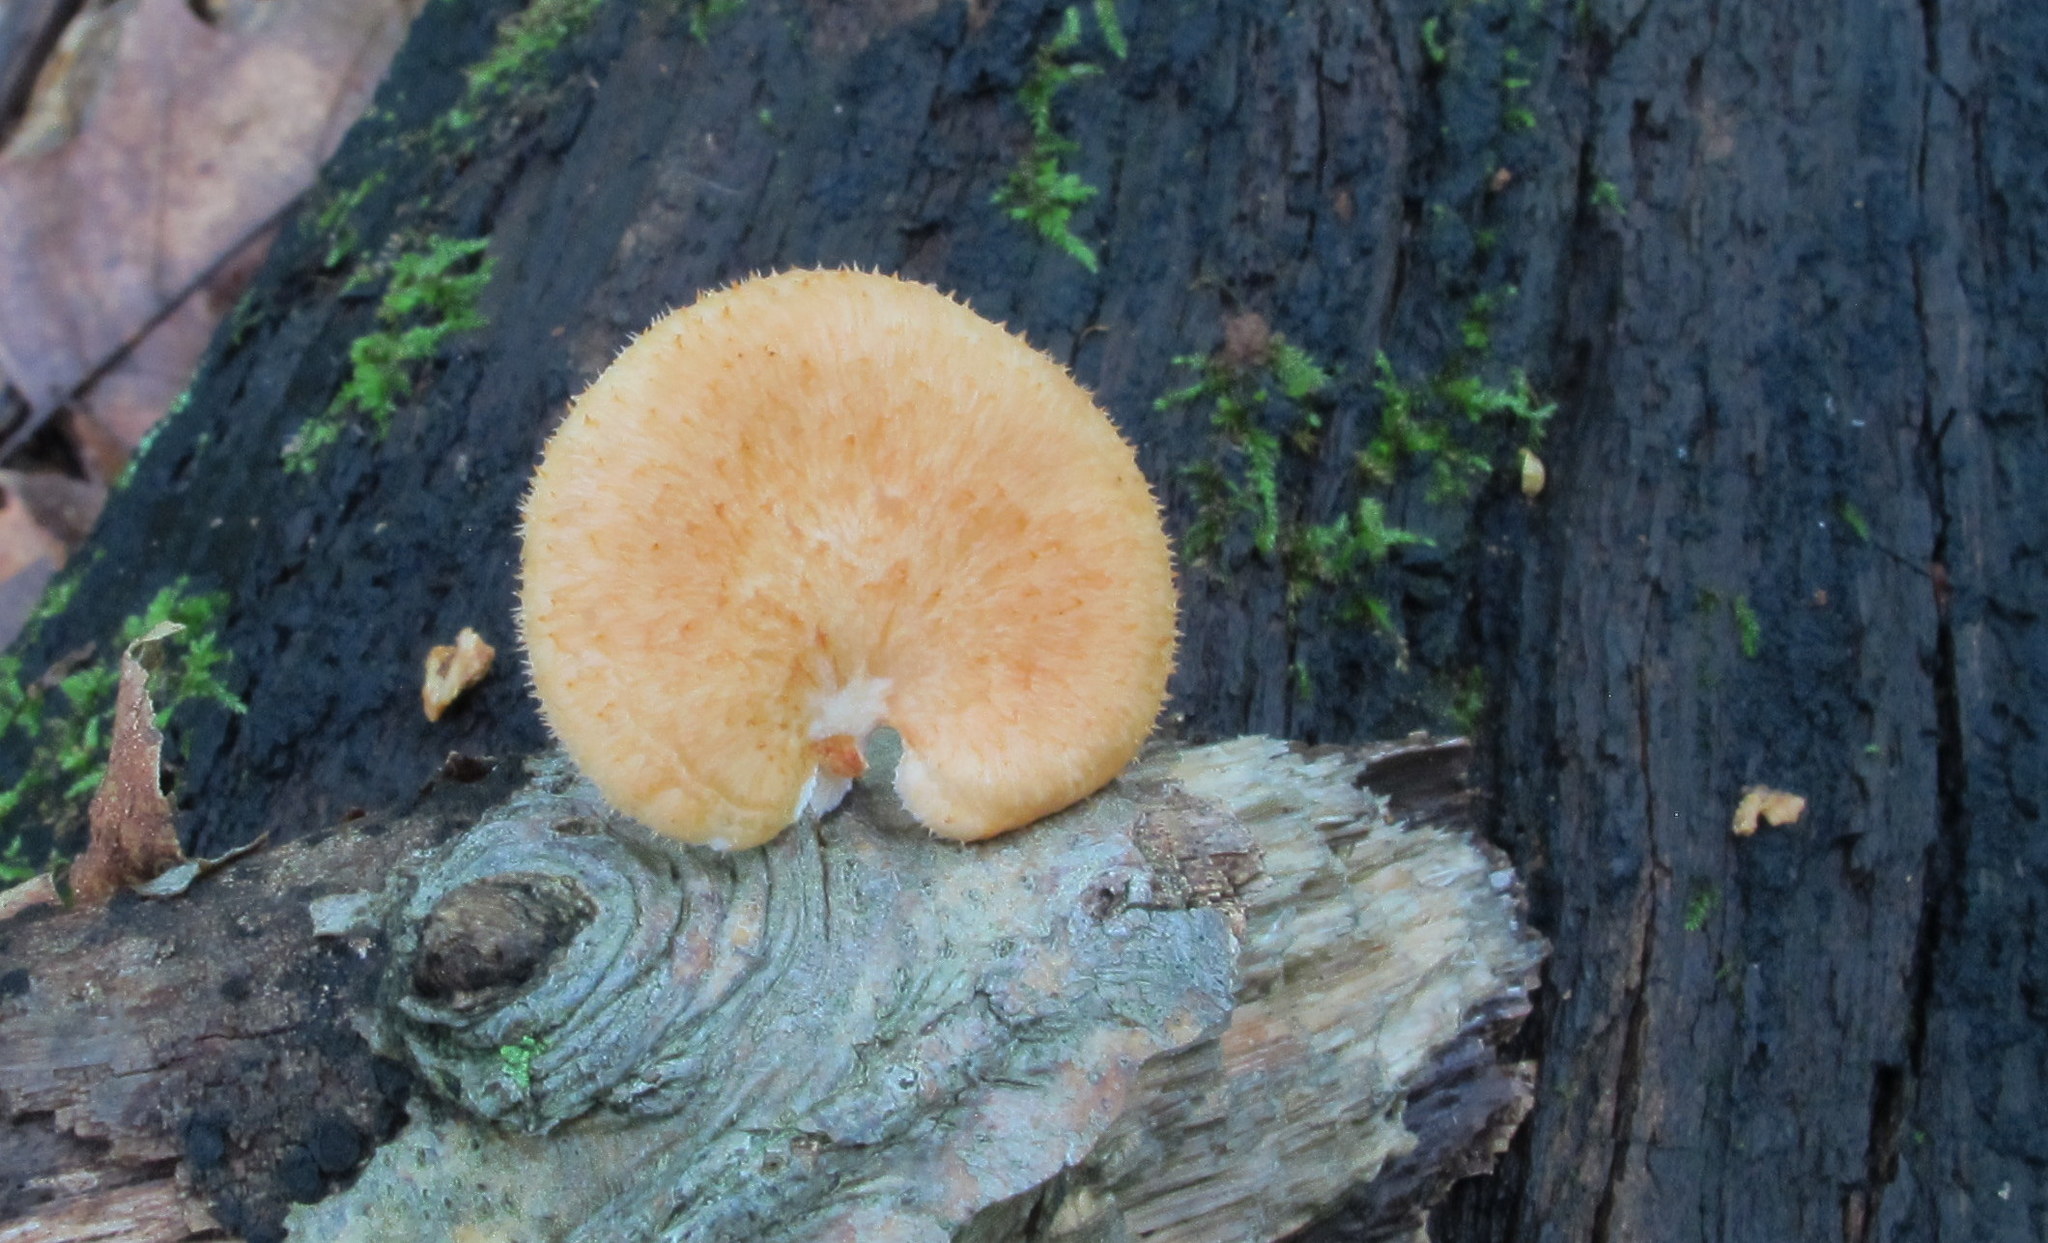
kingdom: Fungi
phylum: Basidiomycota
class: Agaricomycetes
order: Polyporales
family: Polyporaceae
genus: Neofavolus
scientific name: Neofavolus alveolaris
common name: Hexagonal-pored polypore
